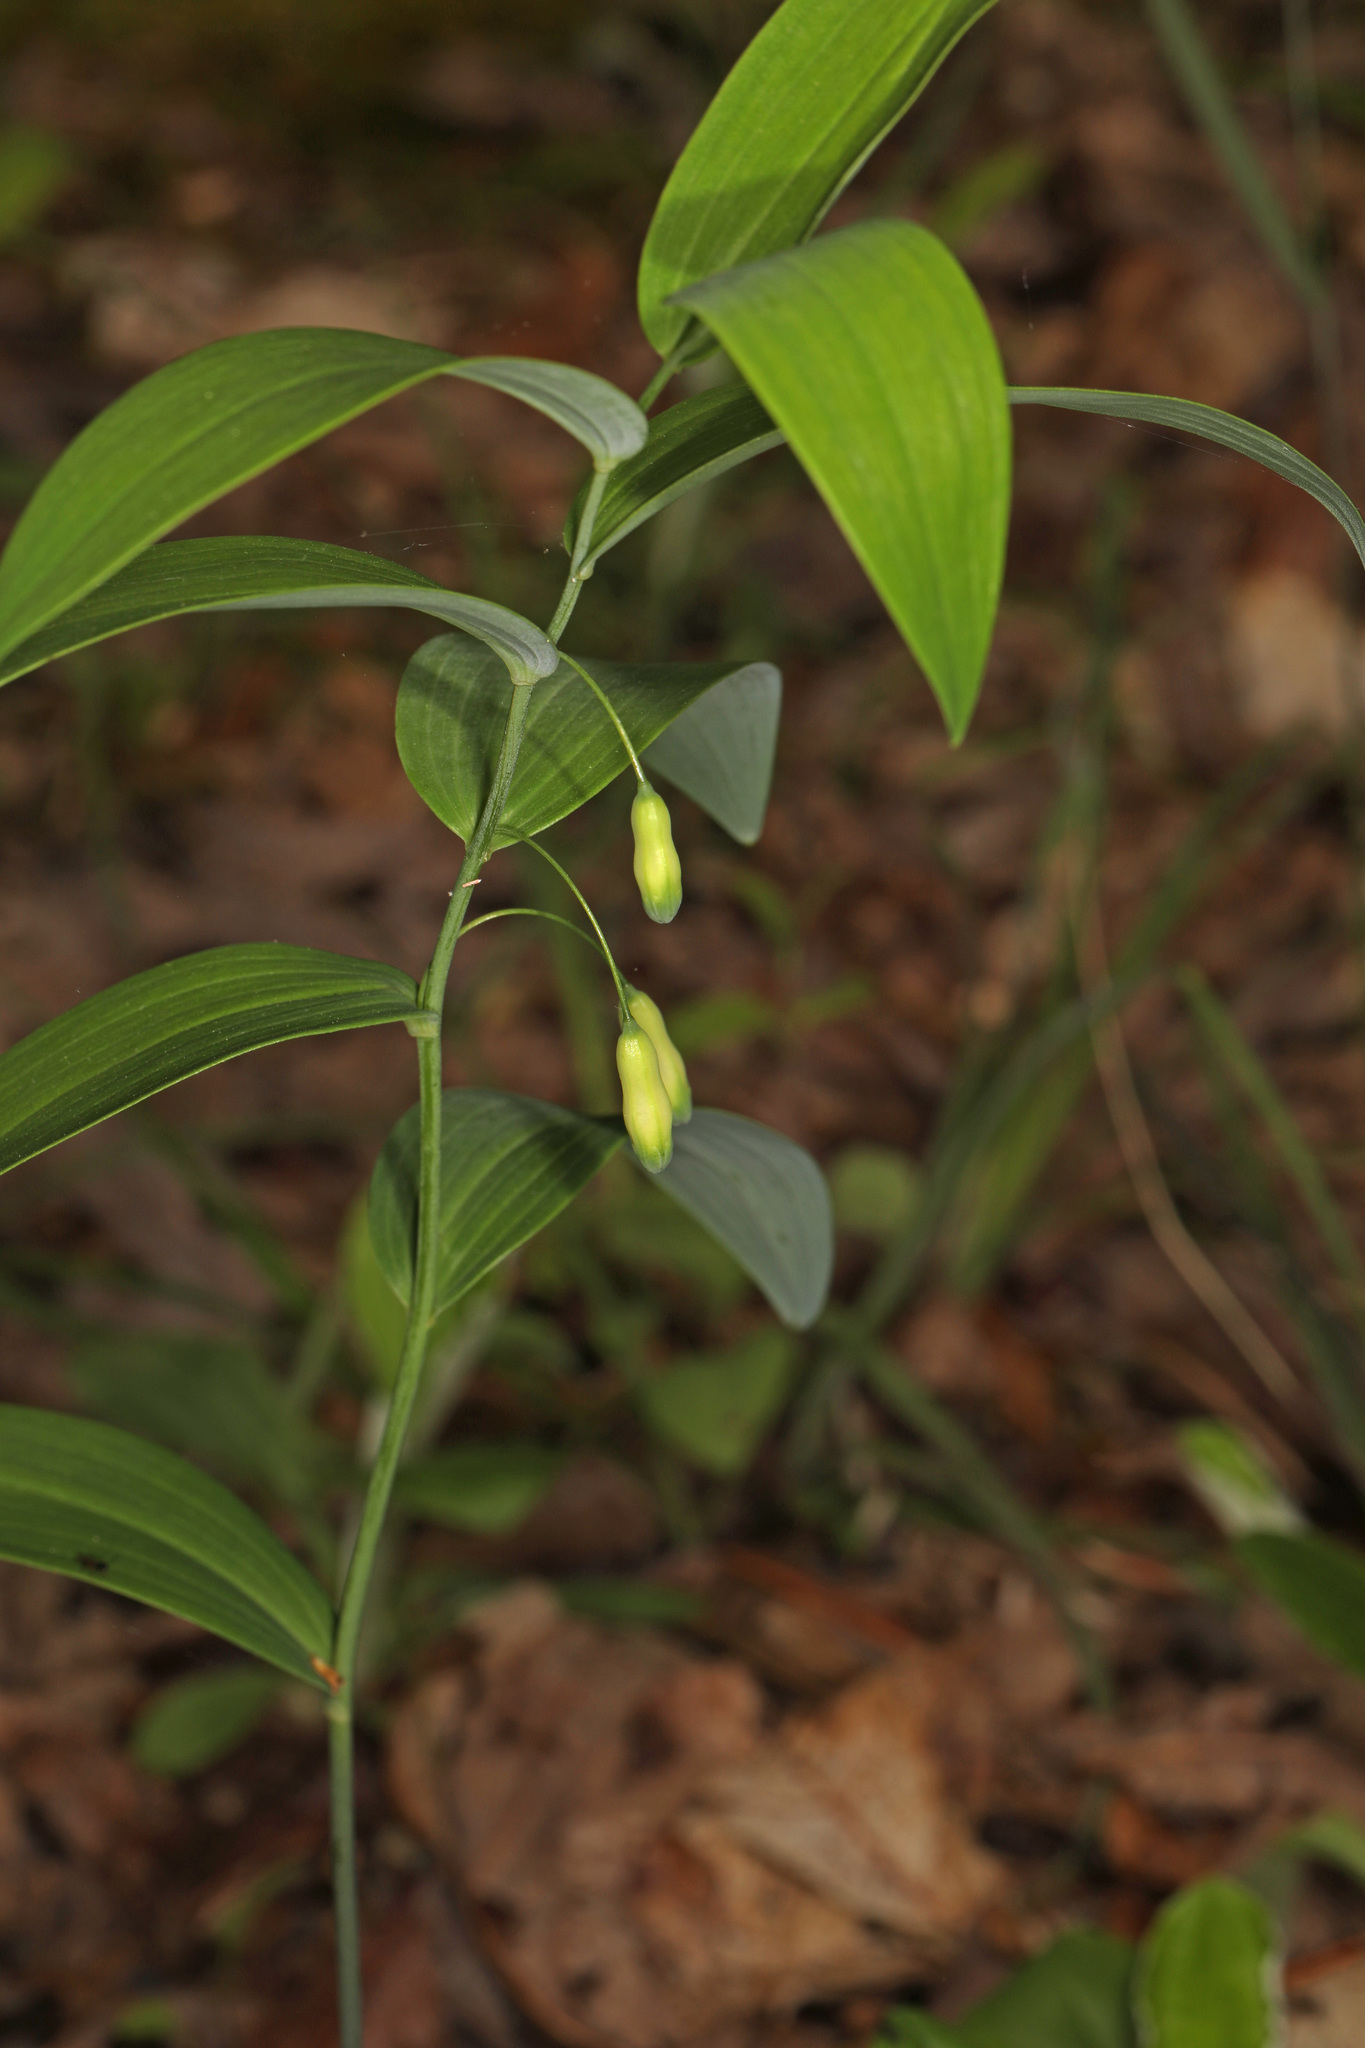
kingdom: Plantae
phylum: Tracheophyta
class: Liliopsida
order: Asparagales
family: Asparagaceae
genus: Polygonatum
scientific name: Polygonatum biflorum
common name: American solomon's-seal
